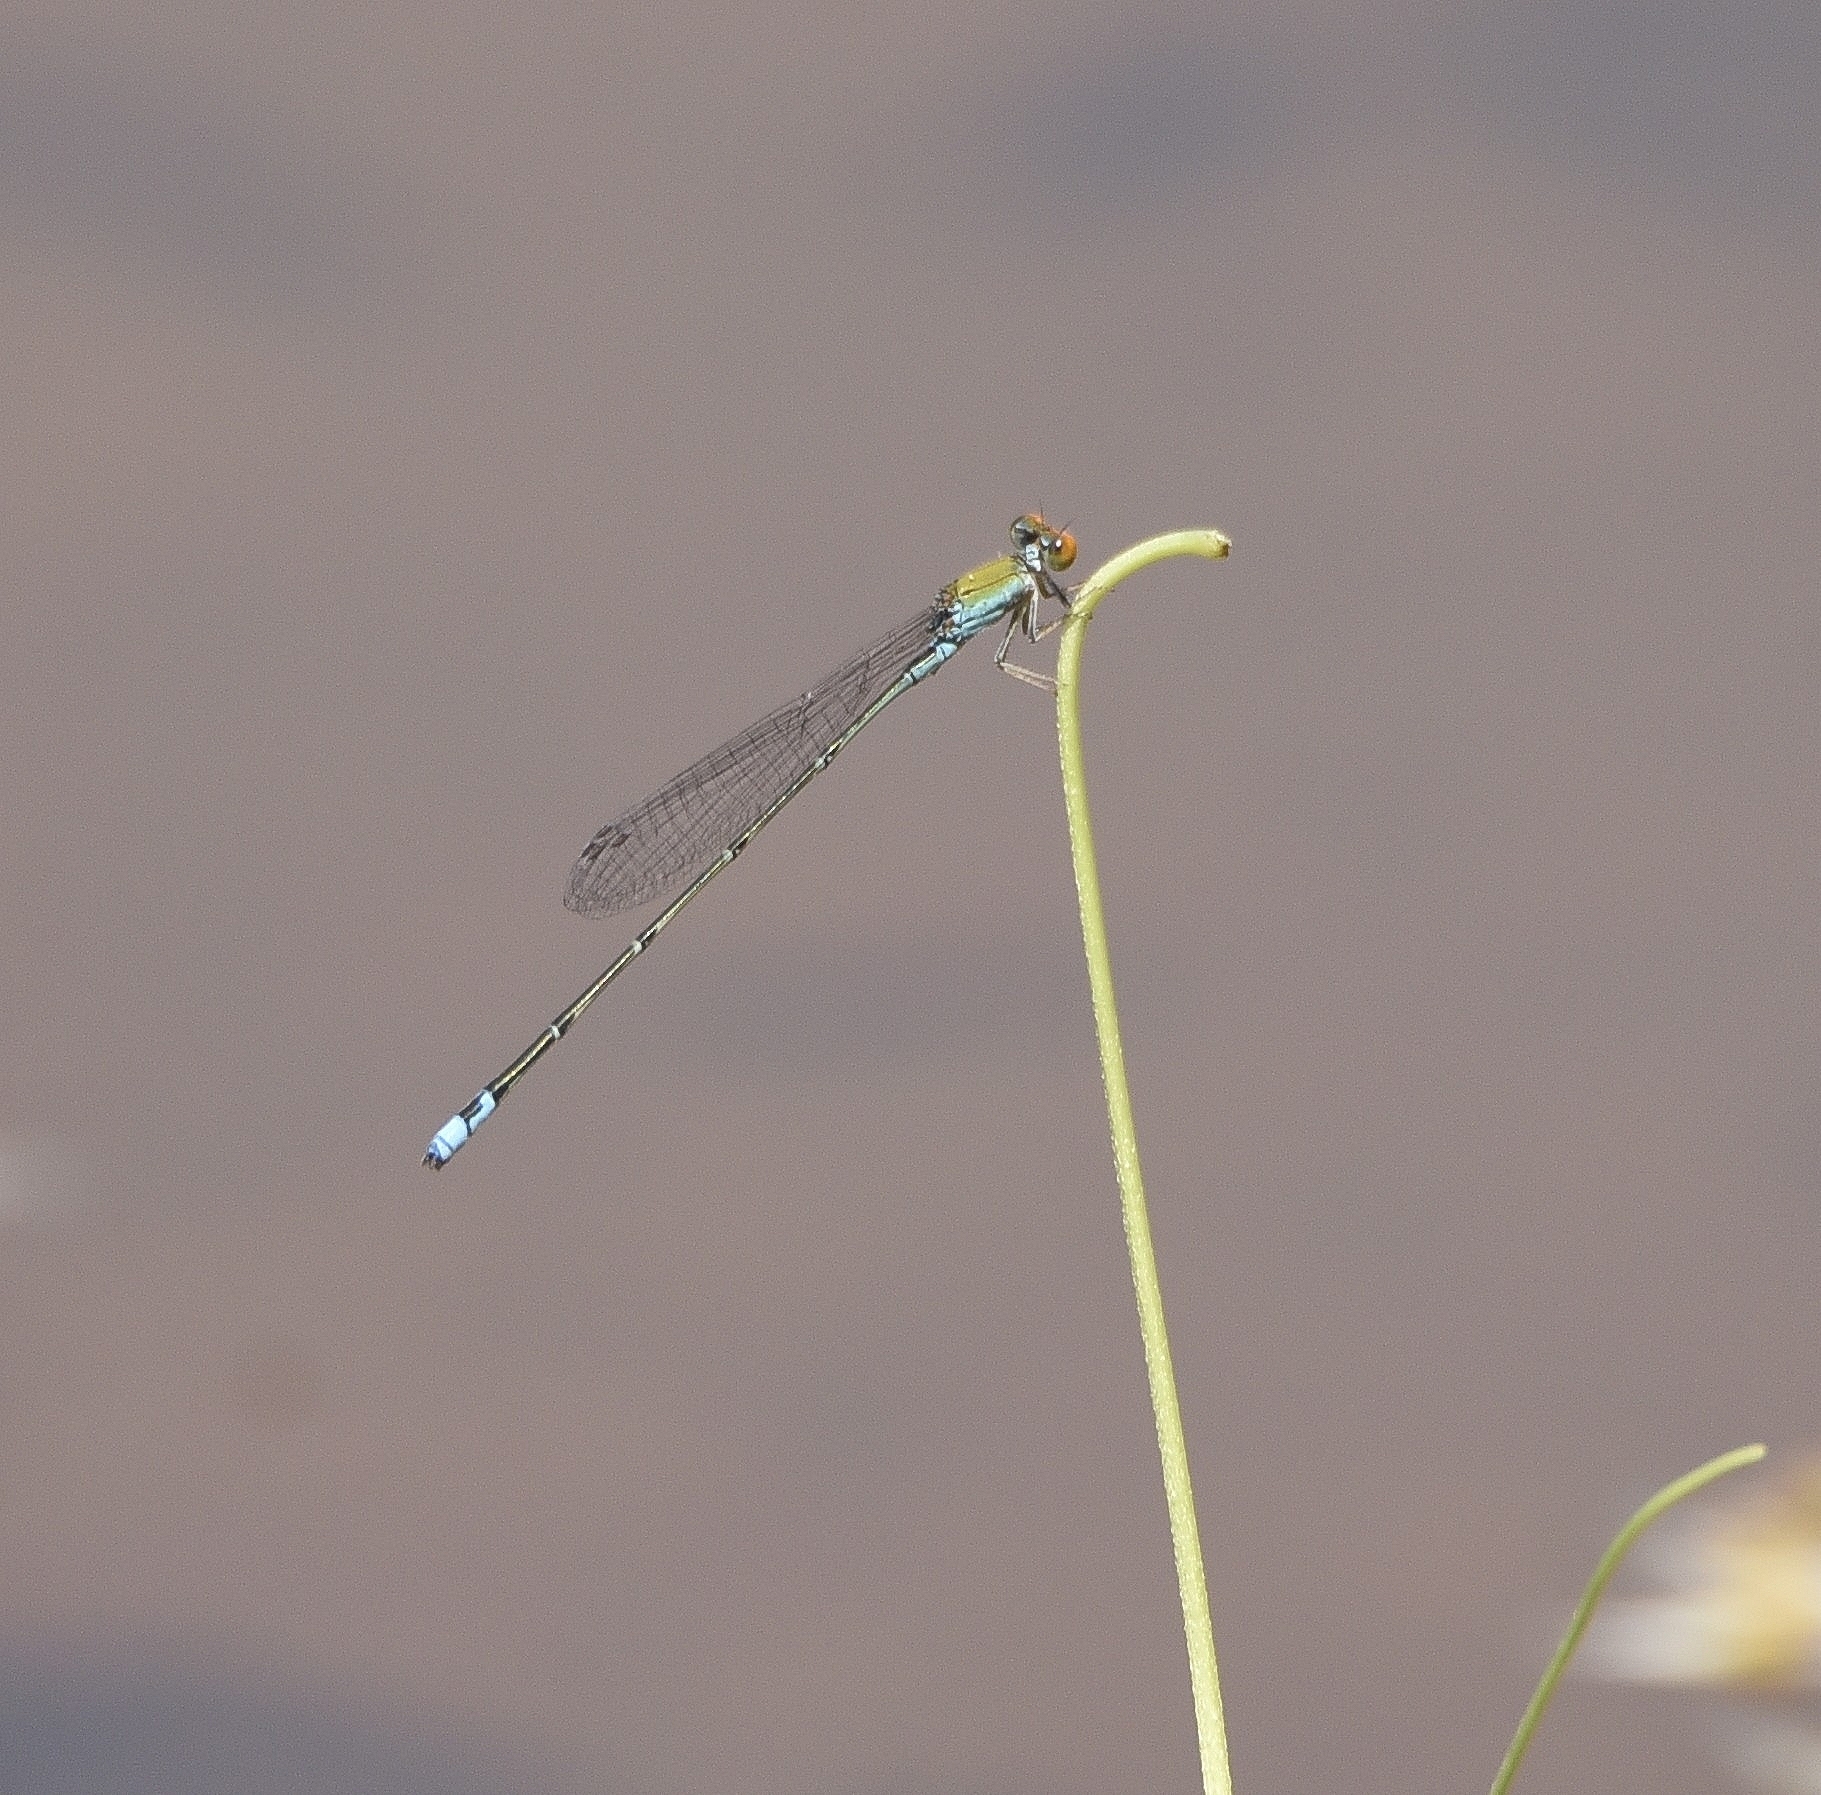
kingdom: Animalia
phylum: Arthropoda
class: Insecta
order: Odonata
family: Coenagrionidae
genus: Pseudagrion
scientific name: Pseudagrion rubriceps
